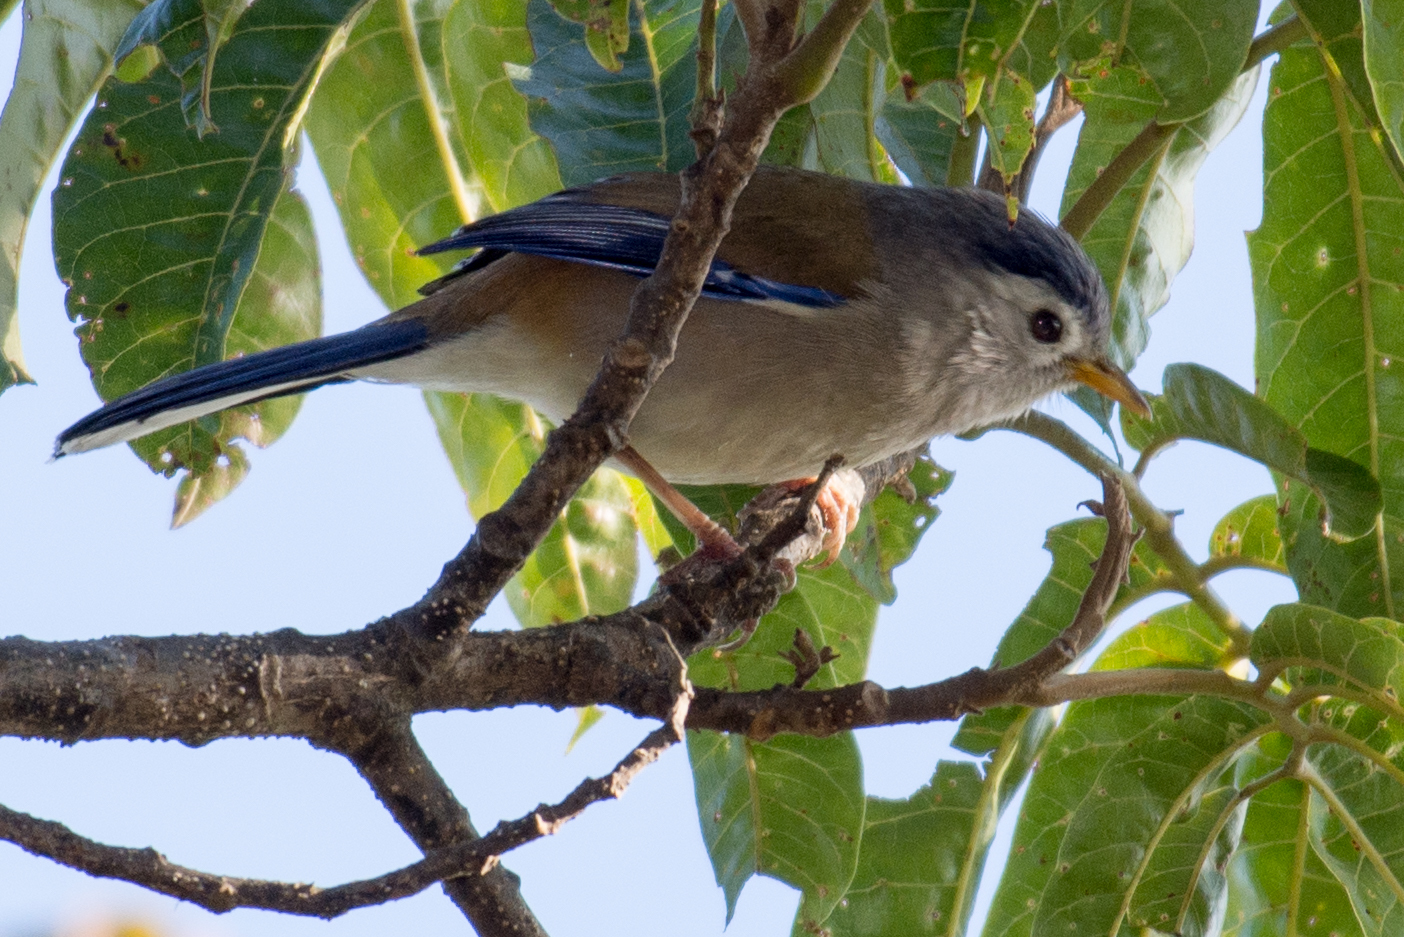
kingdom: Animalia
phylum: Chordata
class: Aves
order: Passeriformes
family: Leiothrichidae
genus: Minla
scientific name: Minla cyanouroptera
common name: Blue-winged minla
